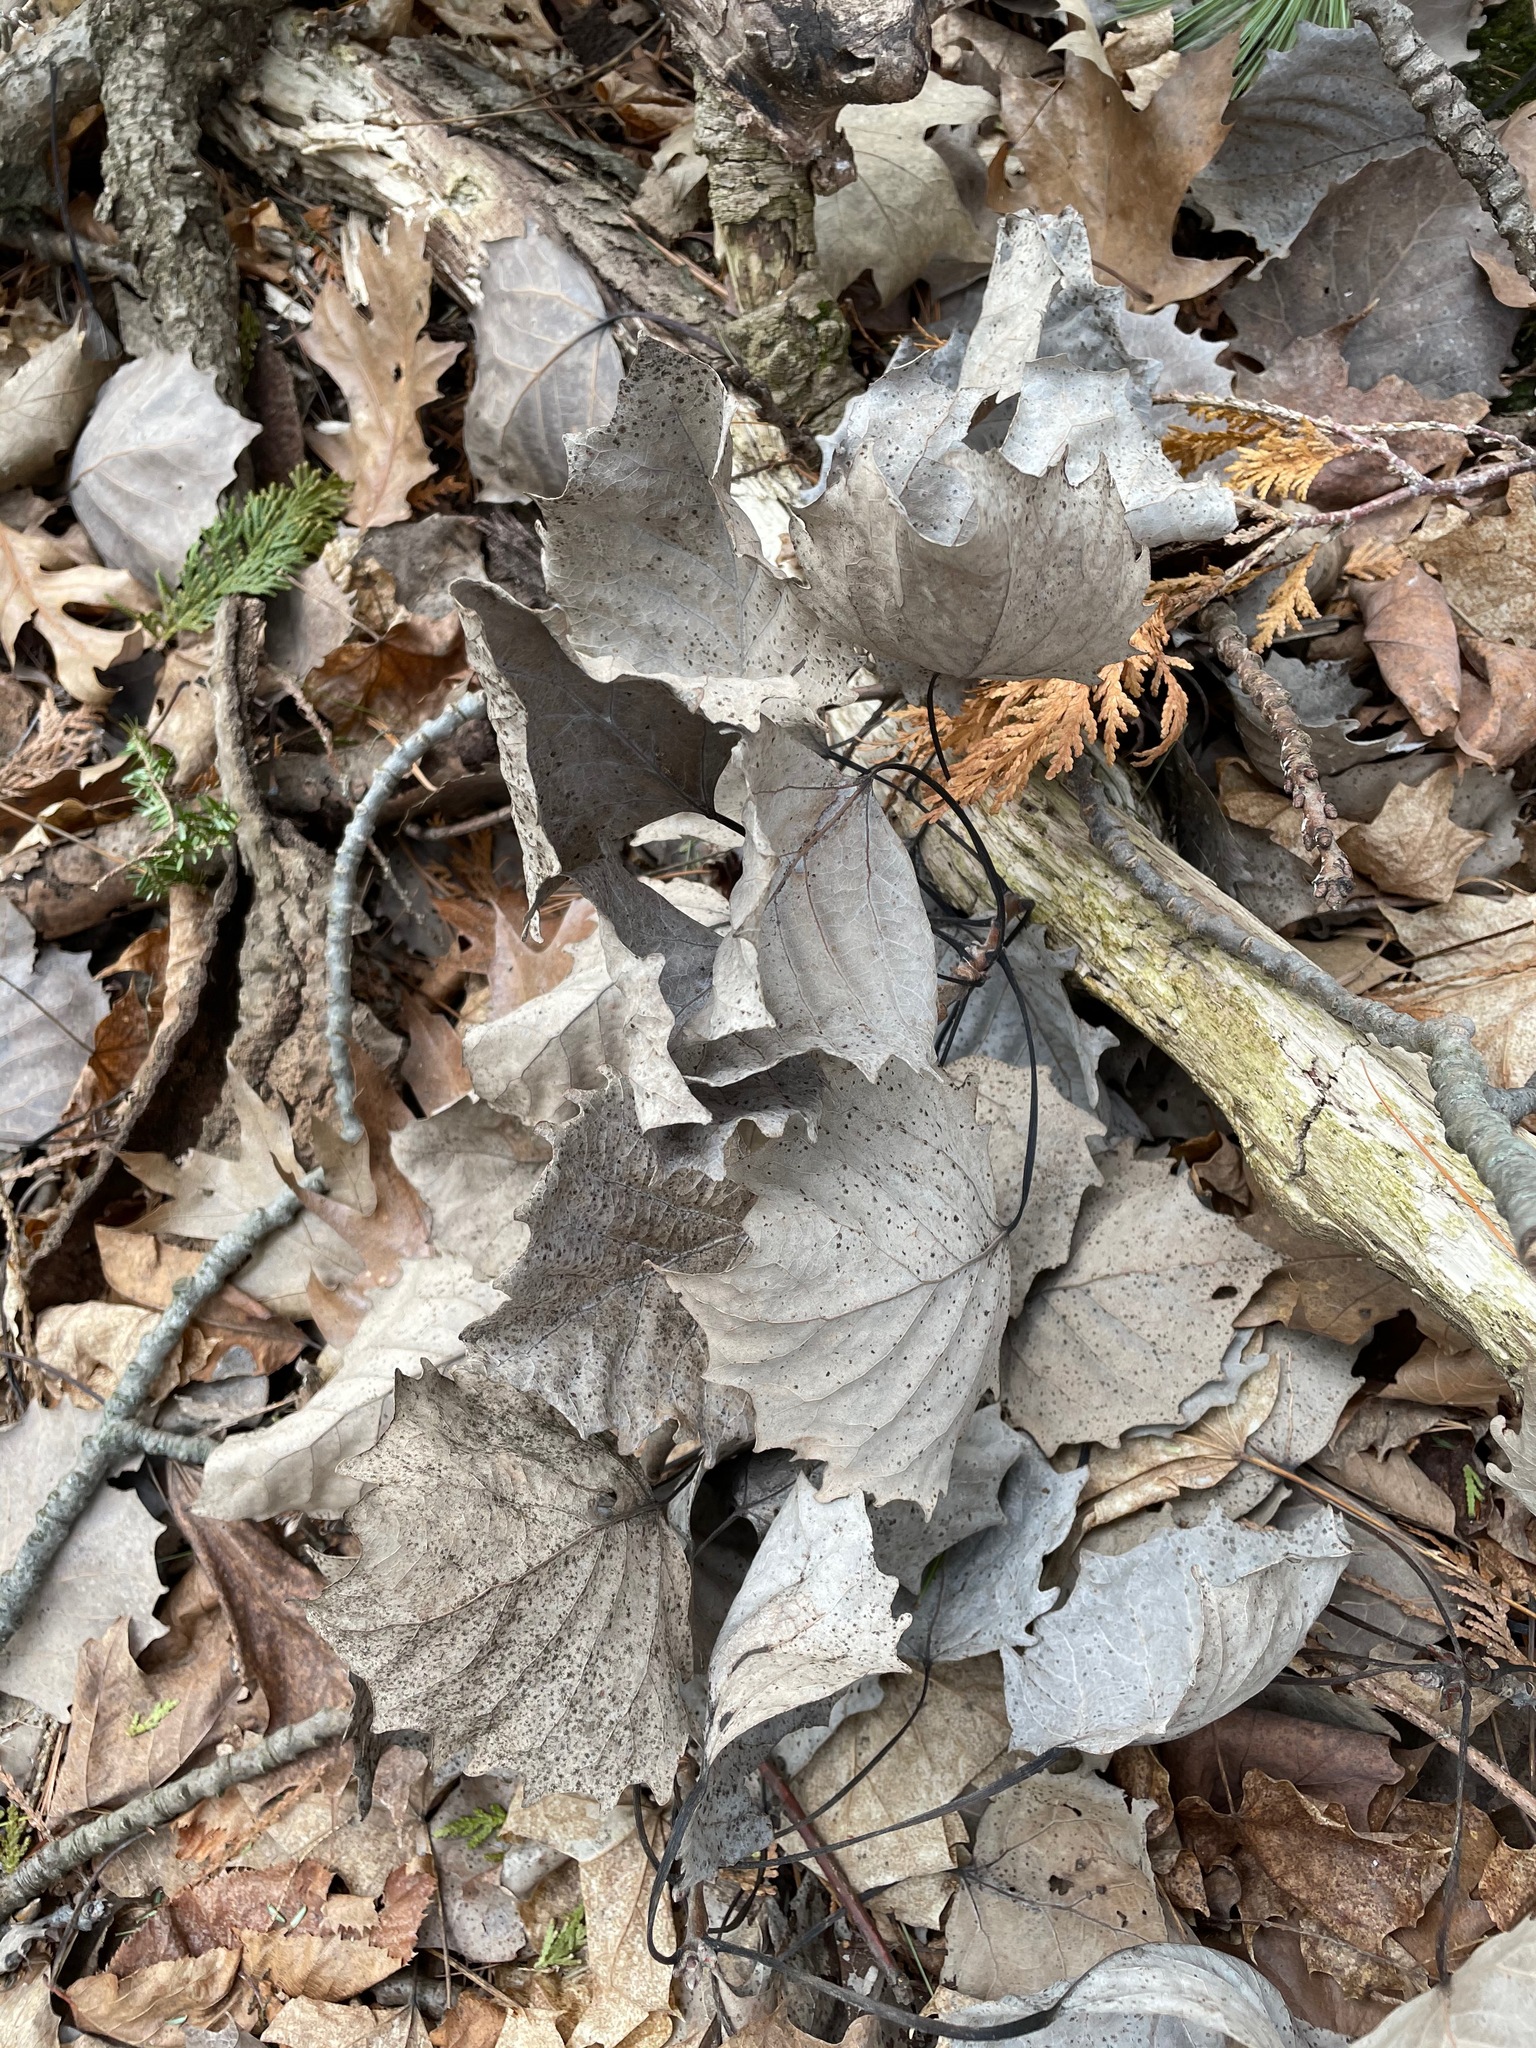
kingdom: Plantae
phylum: Tracheophyta
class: Magnoliopsida
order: Malpighiales
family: Salicaceae
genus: Populus
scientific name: Populus grandidentata
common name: Bigtooth aspen
